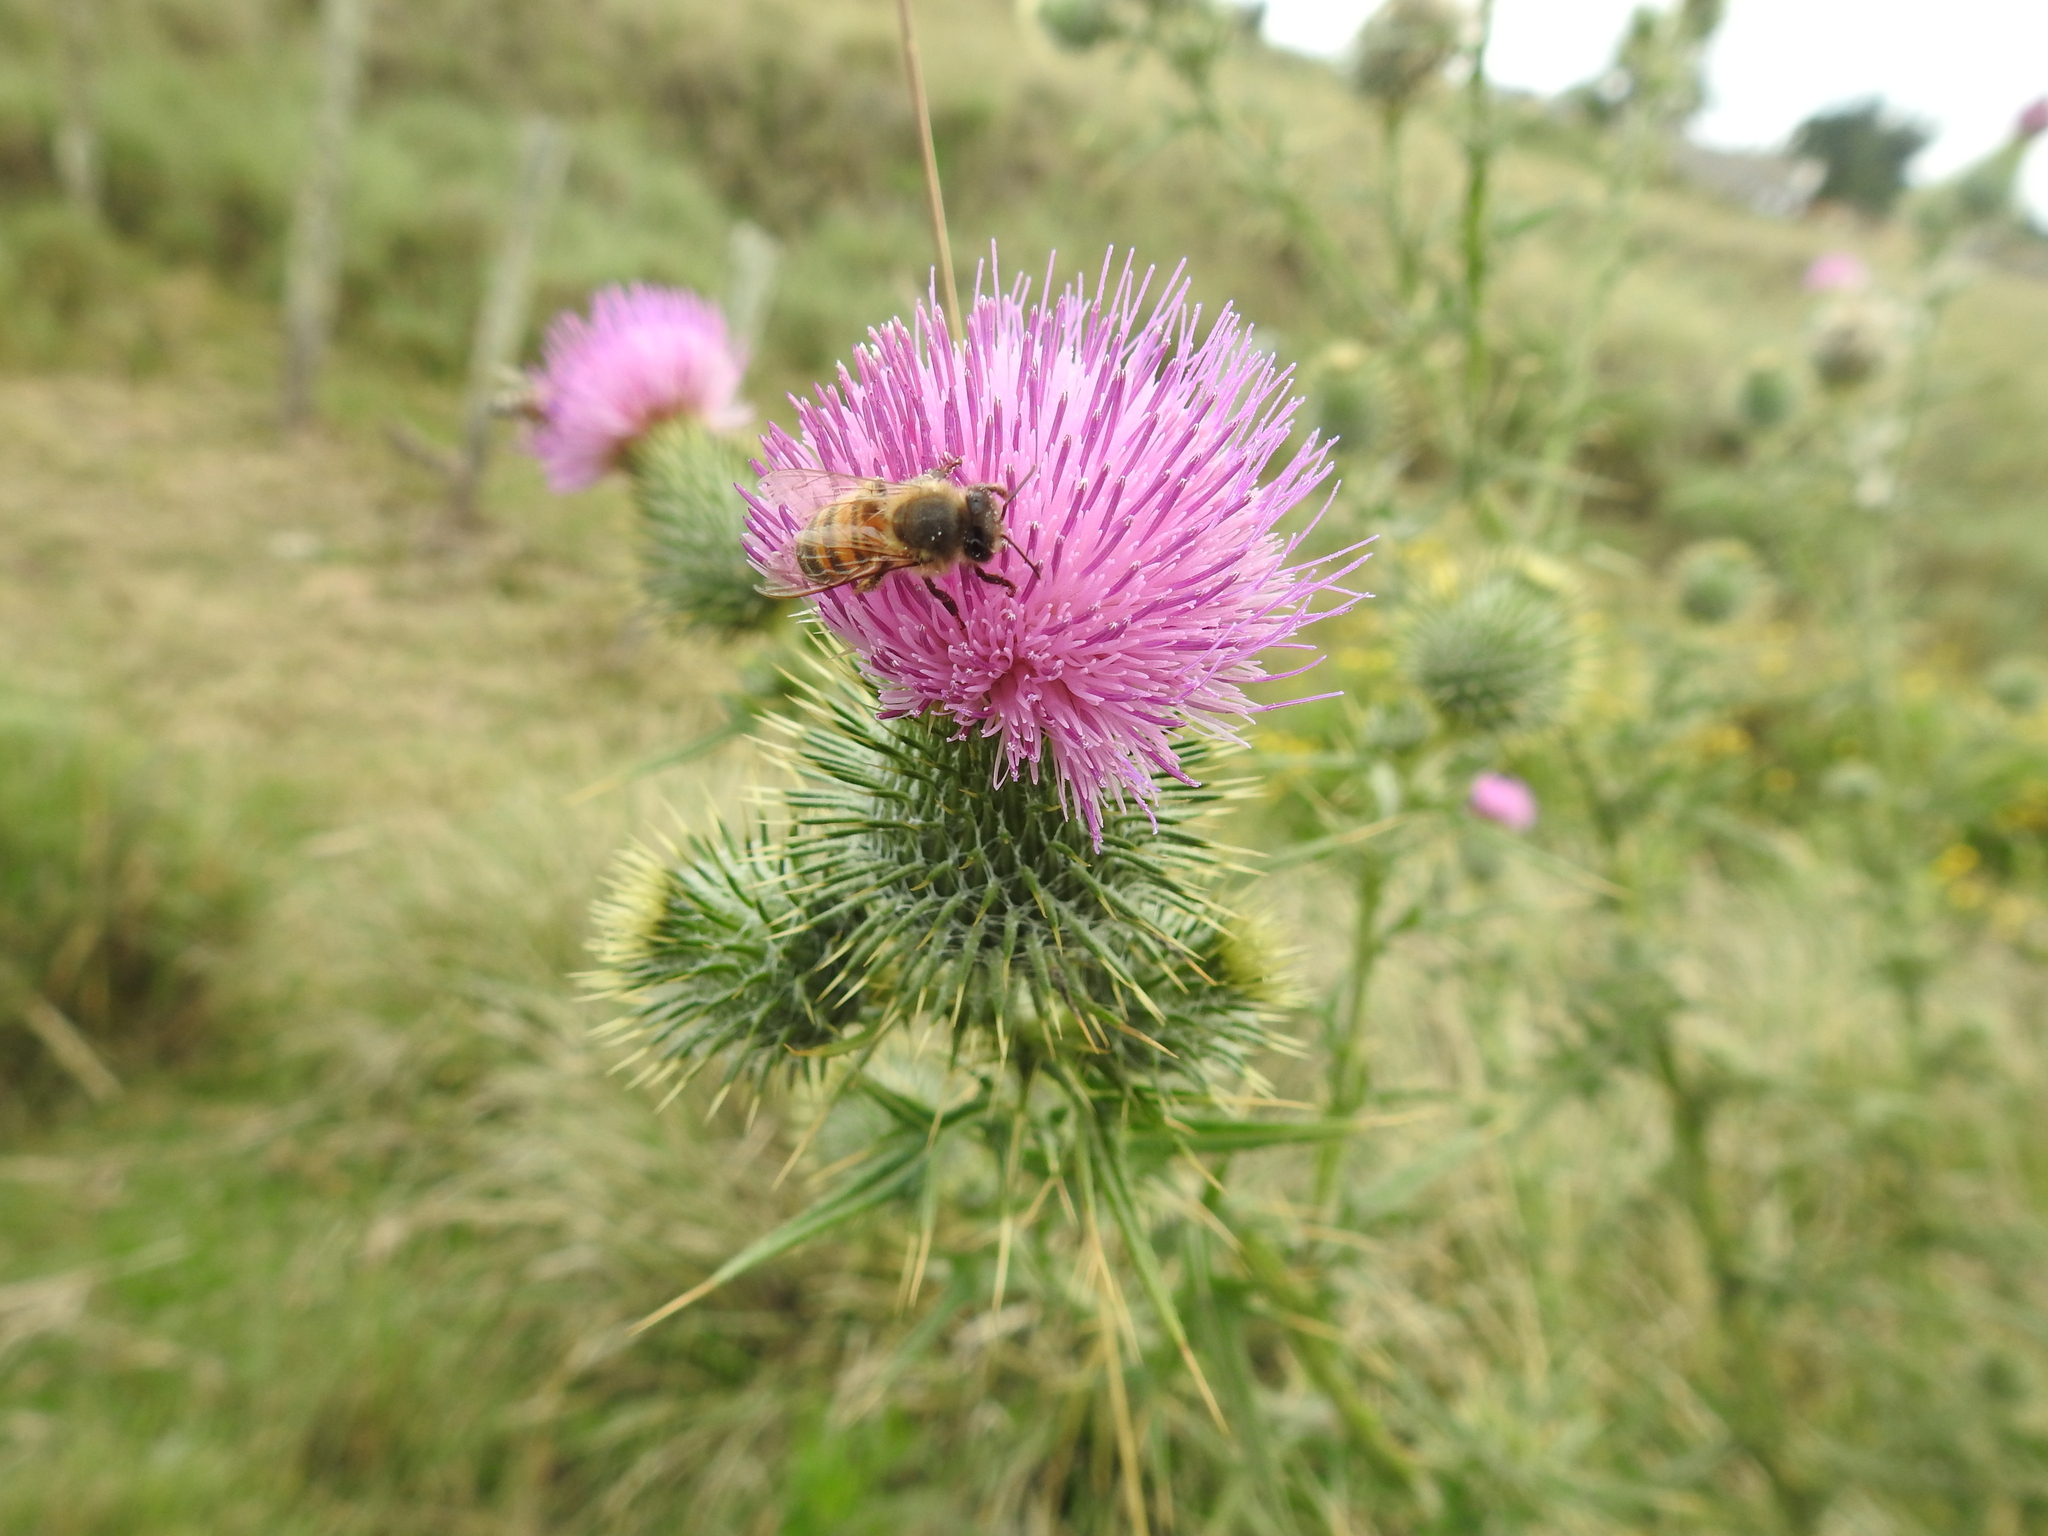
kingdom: Animalia
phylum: Arthropoda
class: Insecta
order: Hymenoptera
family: Apidae
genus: Apis
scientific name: Apis mellifera
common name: Honey bee
